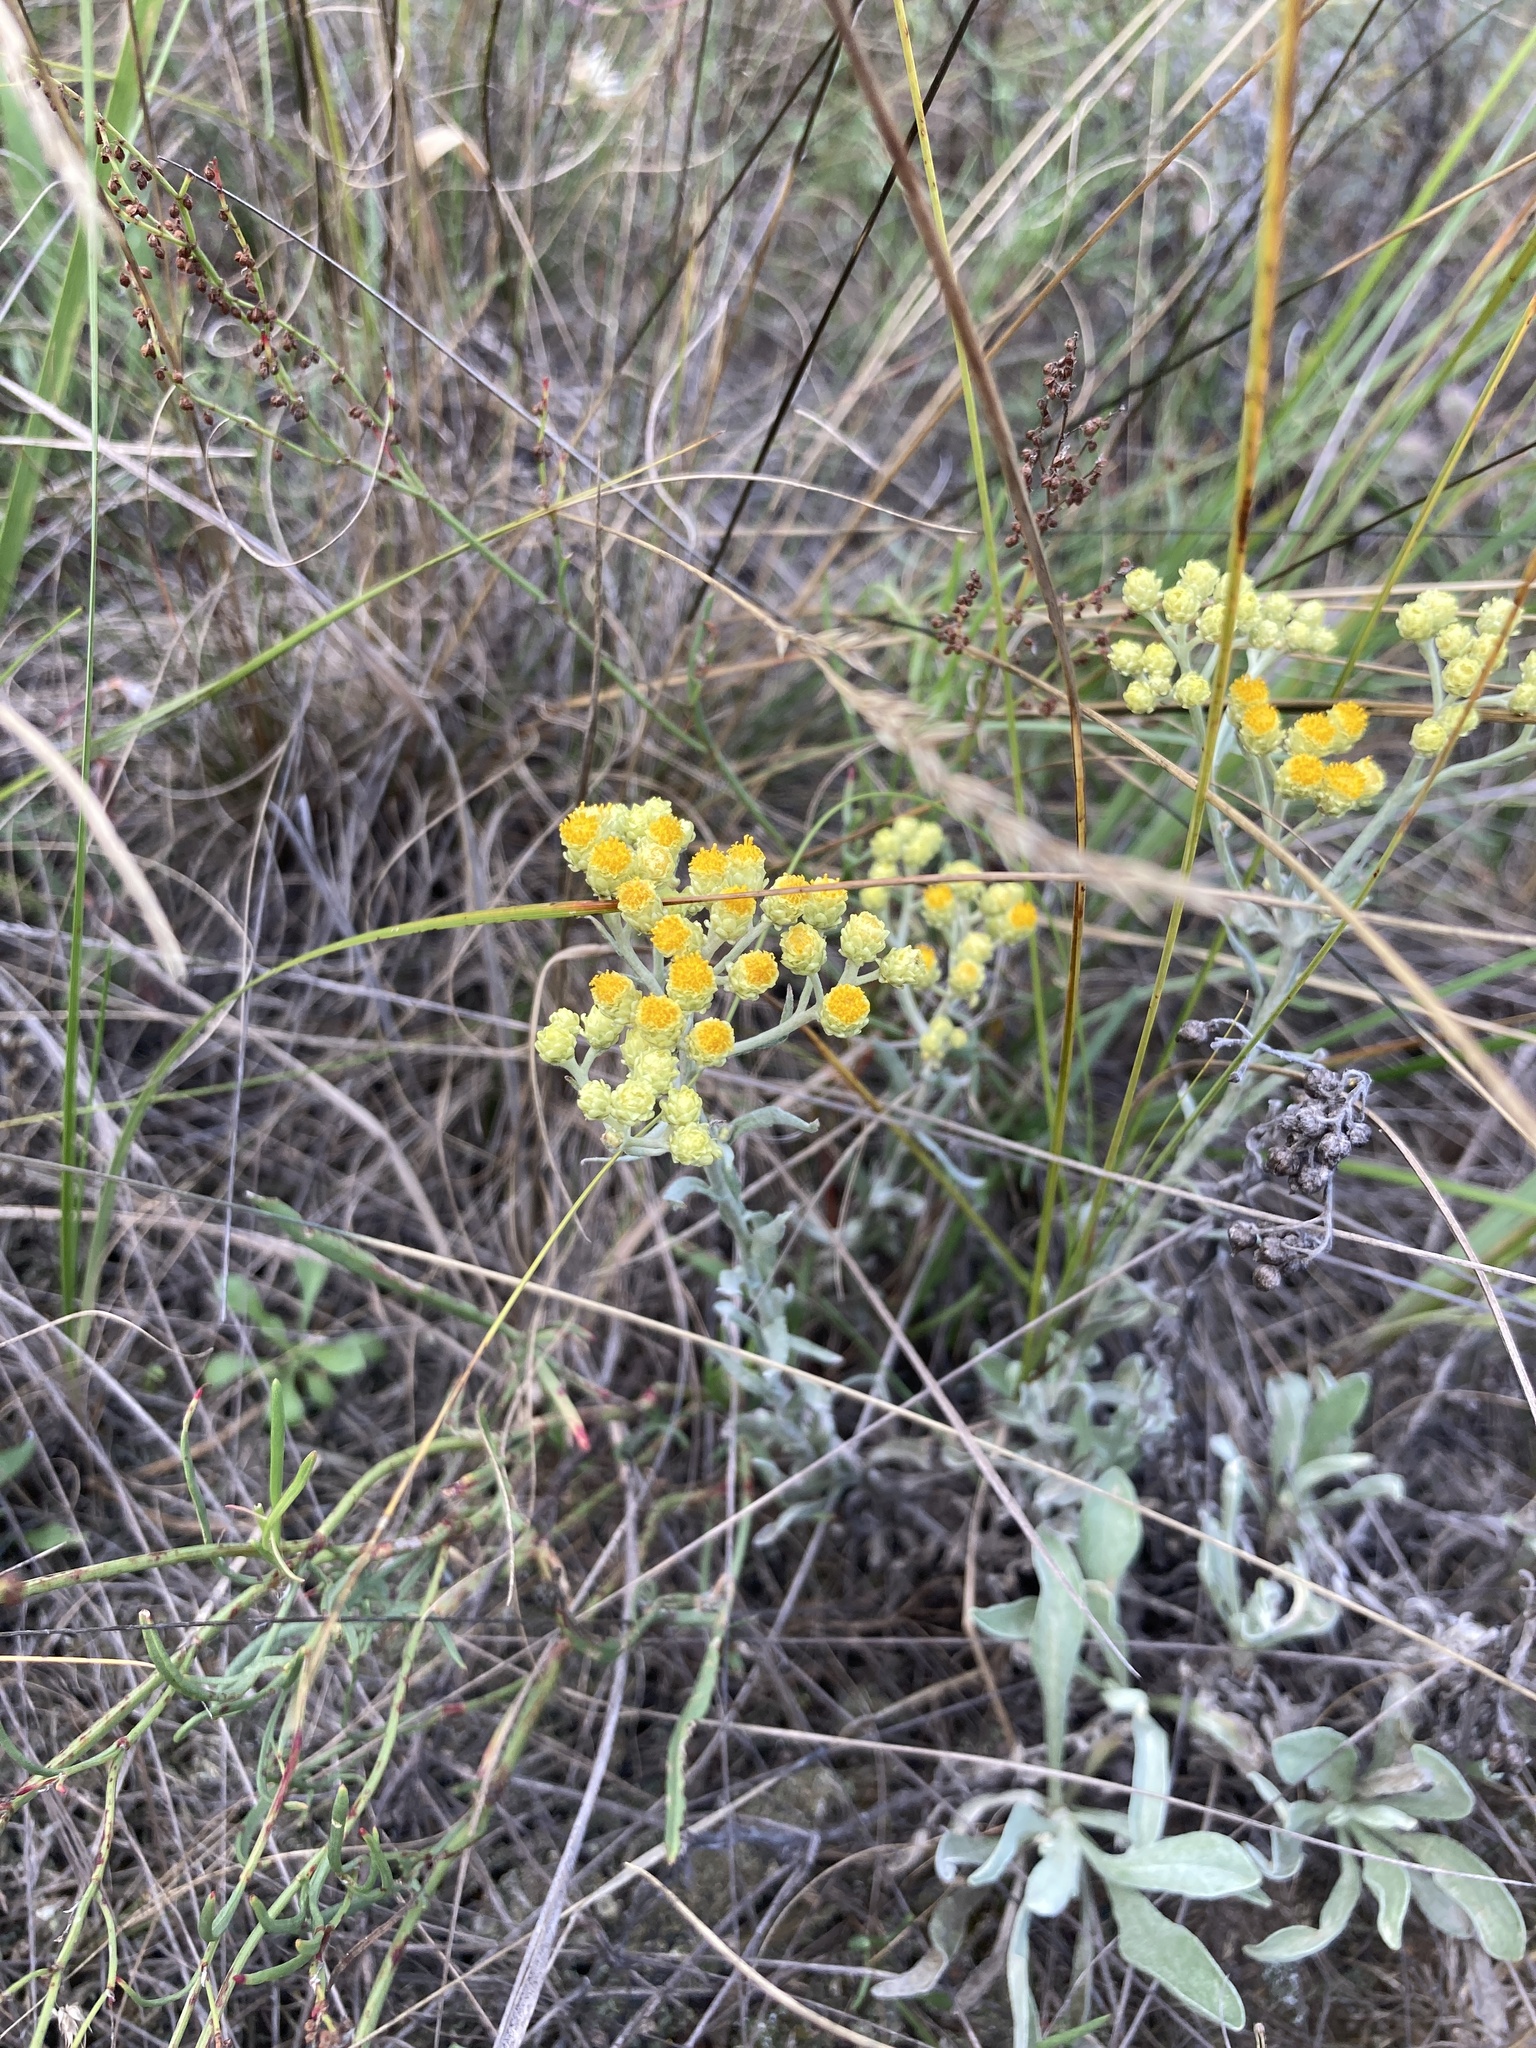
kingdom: Plantae
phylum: Tracheophyta
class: Magnoliopsida
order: Asterales
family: Asteraceae
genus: Helichrysum
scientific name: Helichrysum arenarium
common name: Strawflower
